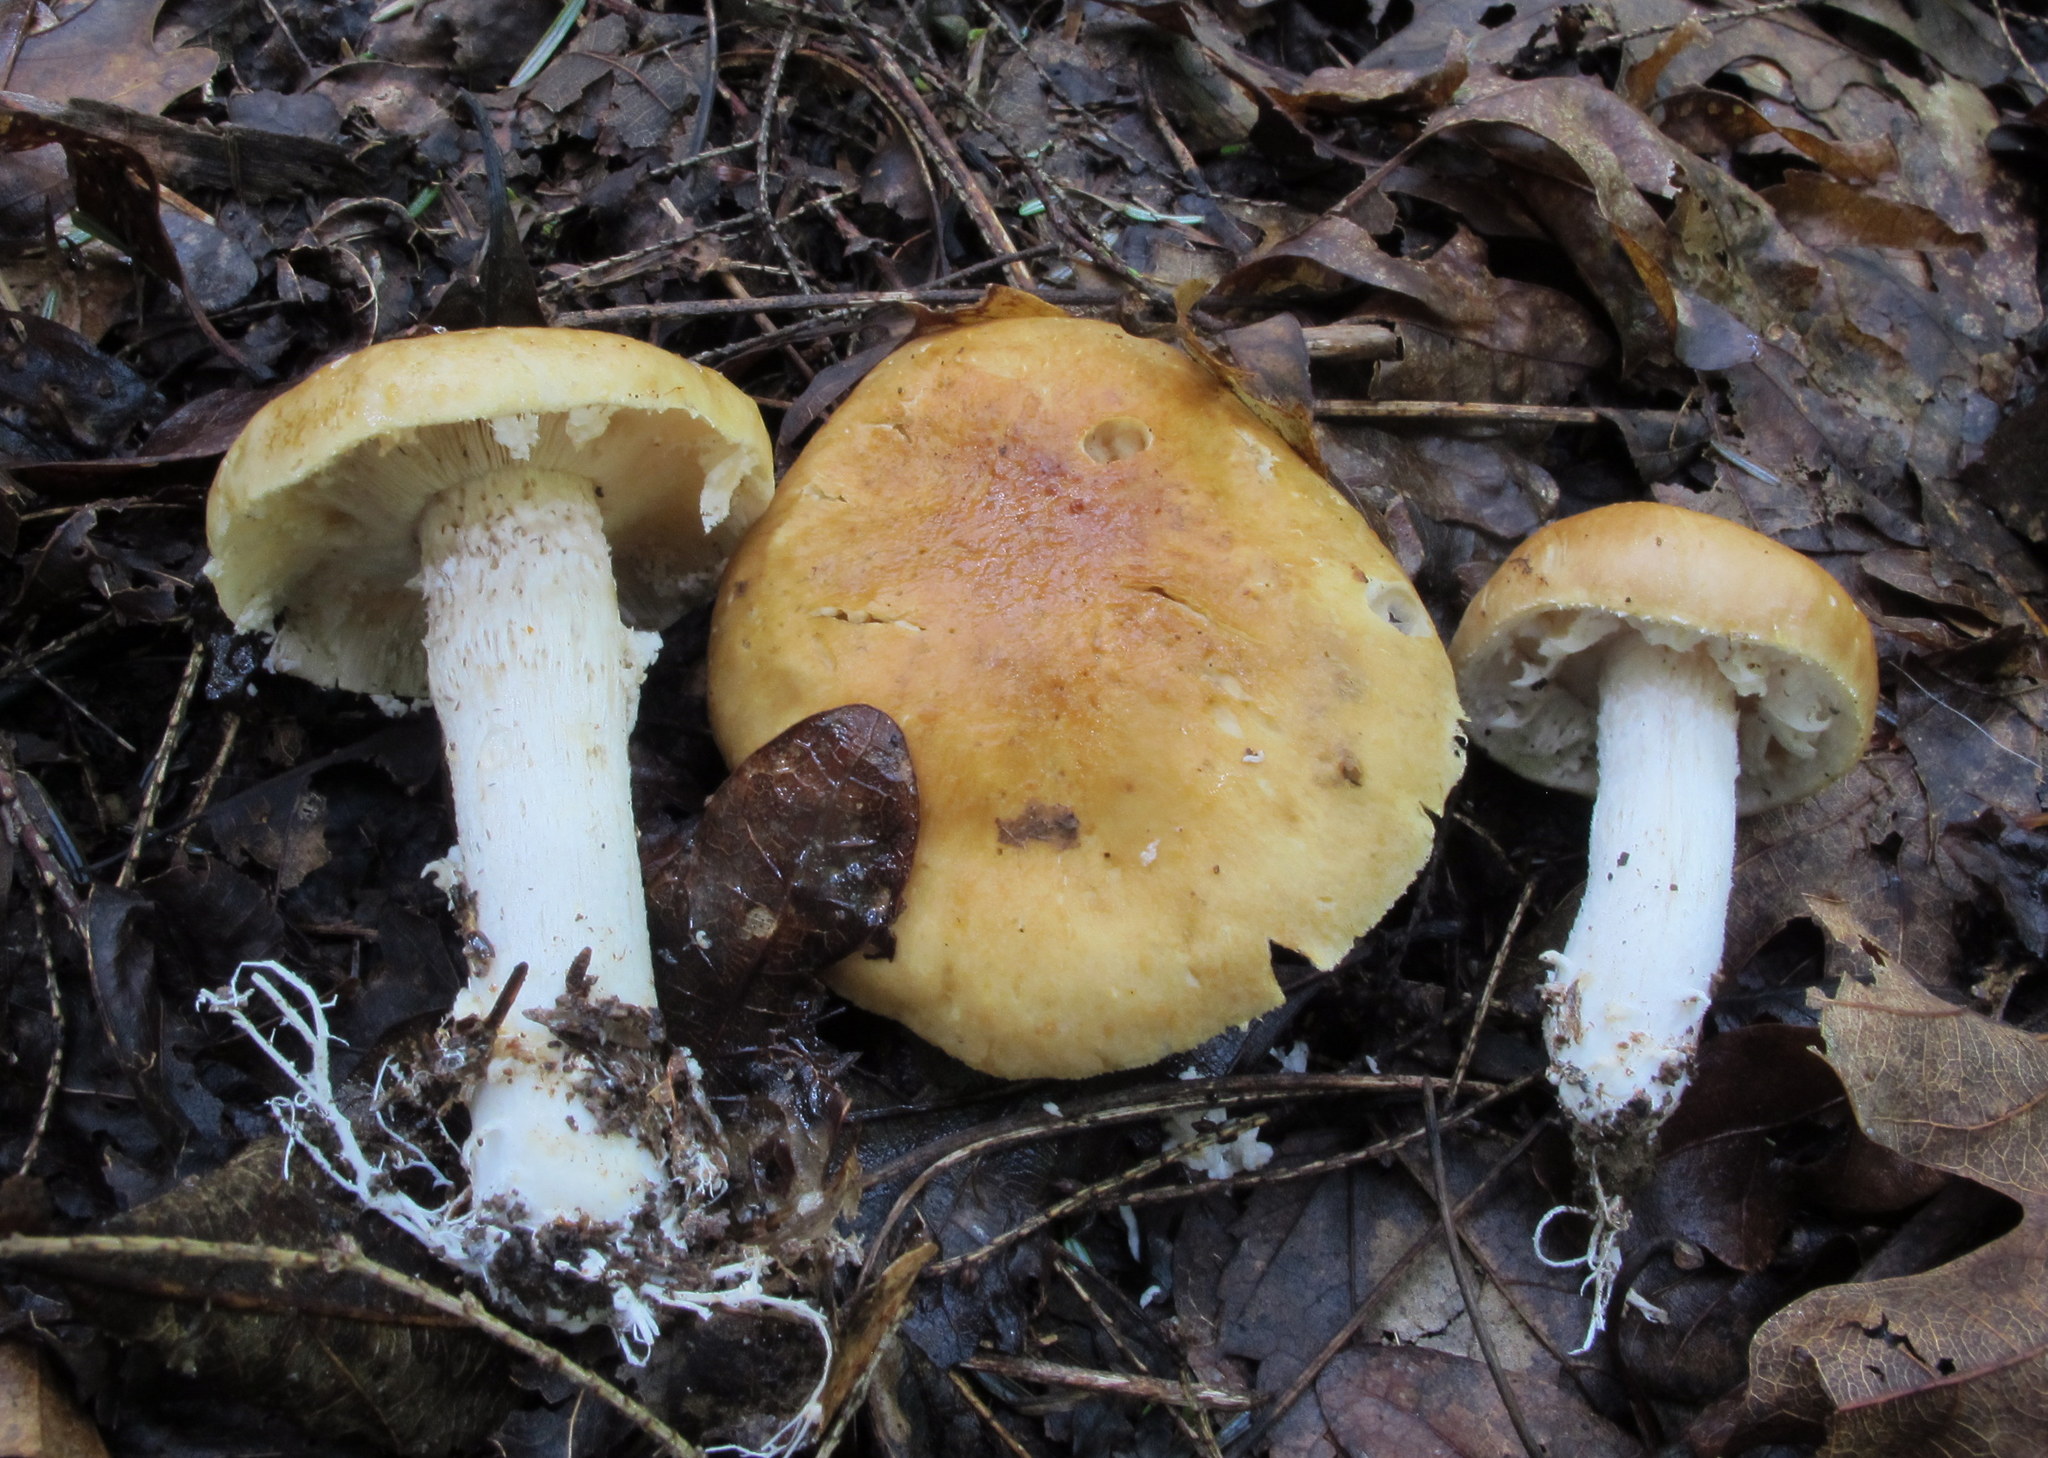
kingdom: Fungi
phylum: Basidiomycota
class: Agaricomycetes
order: Agaricales
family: Strophariaceae
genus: Stropharia
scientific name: Stropharia hardii
